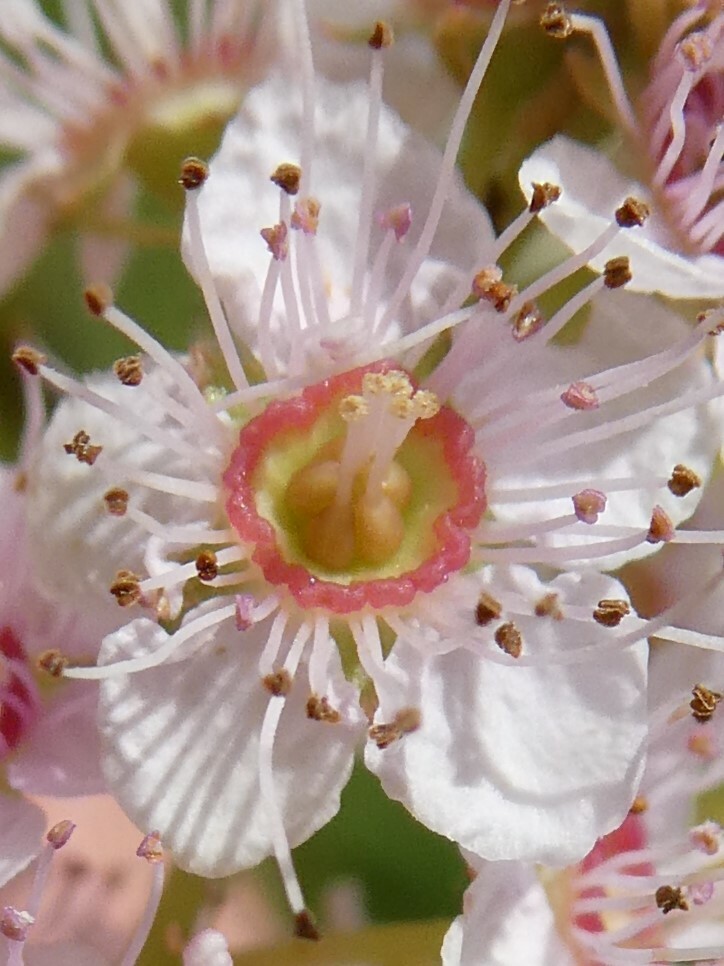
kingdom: Plantae
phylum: Tracheophyta
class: Magnoliopsida
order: Rosales
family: Rosaceae
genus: Spiraea
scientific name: Spiraea alba
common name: Pale bridewort
